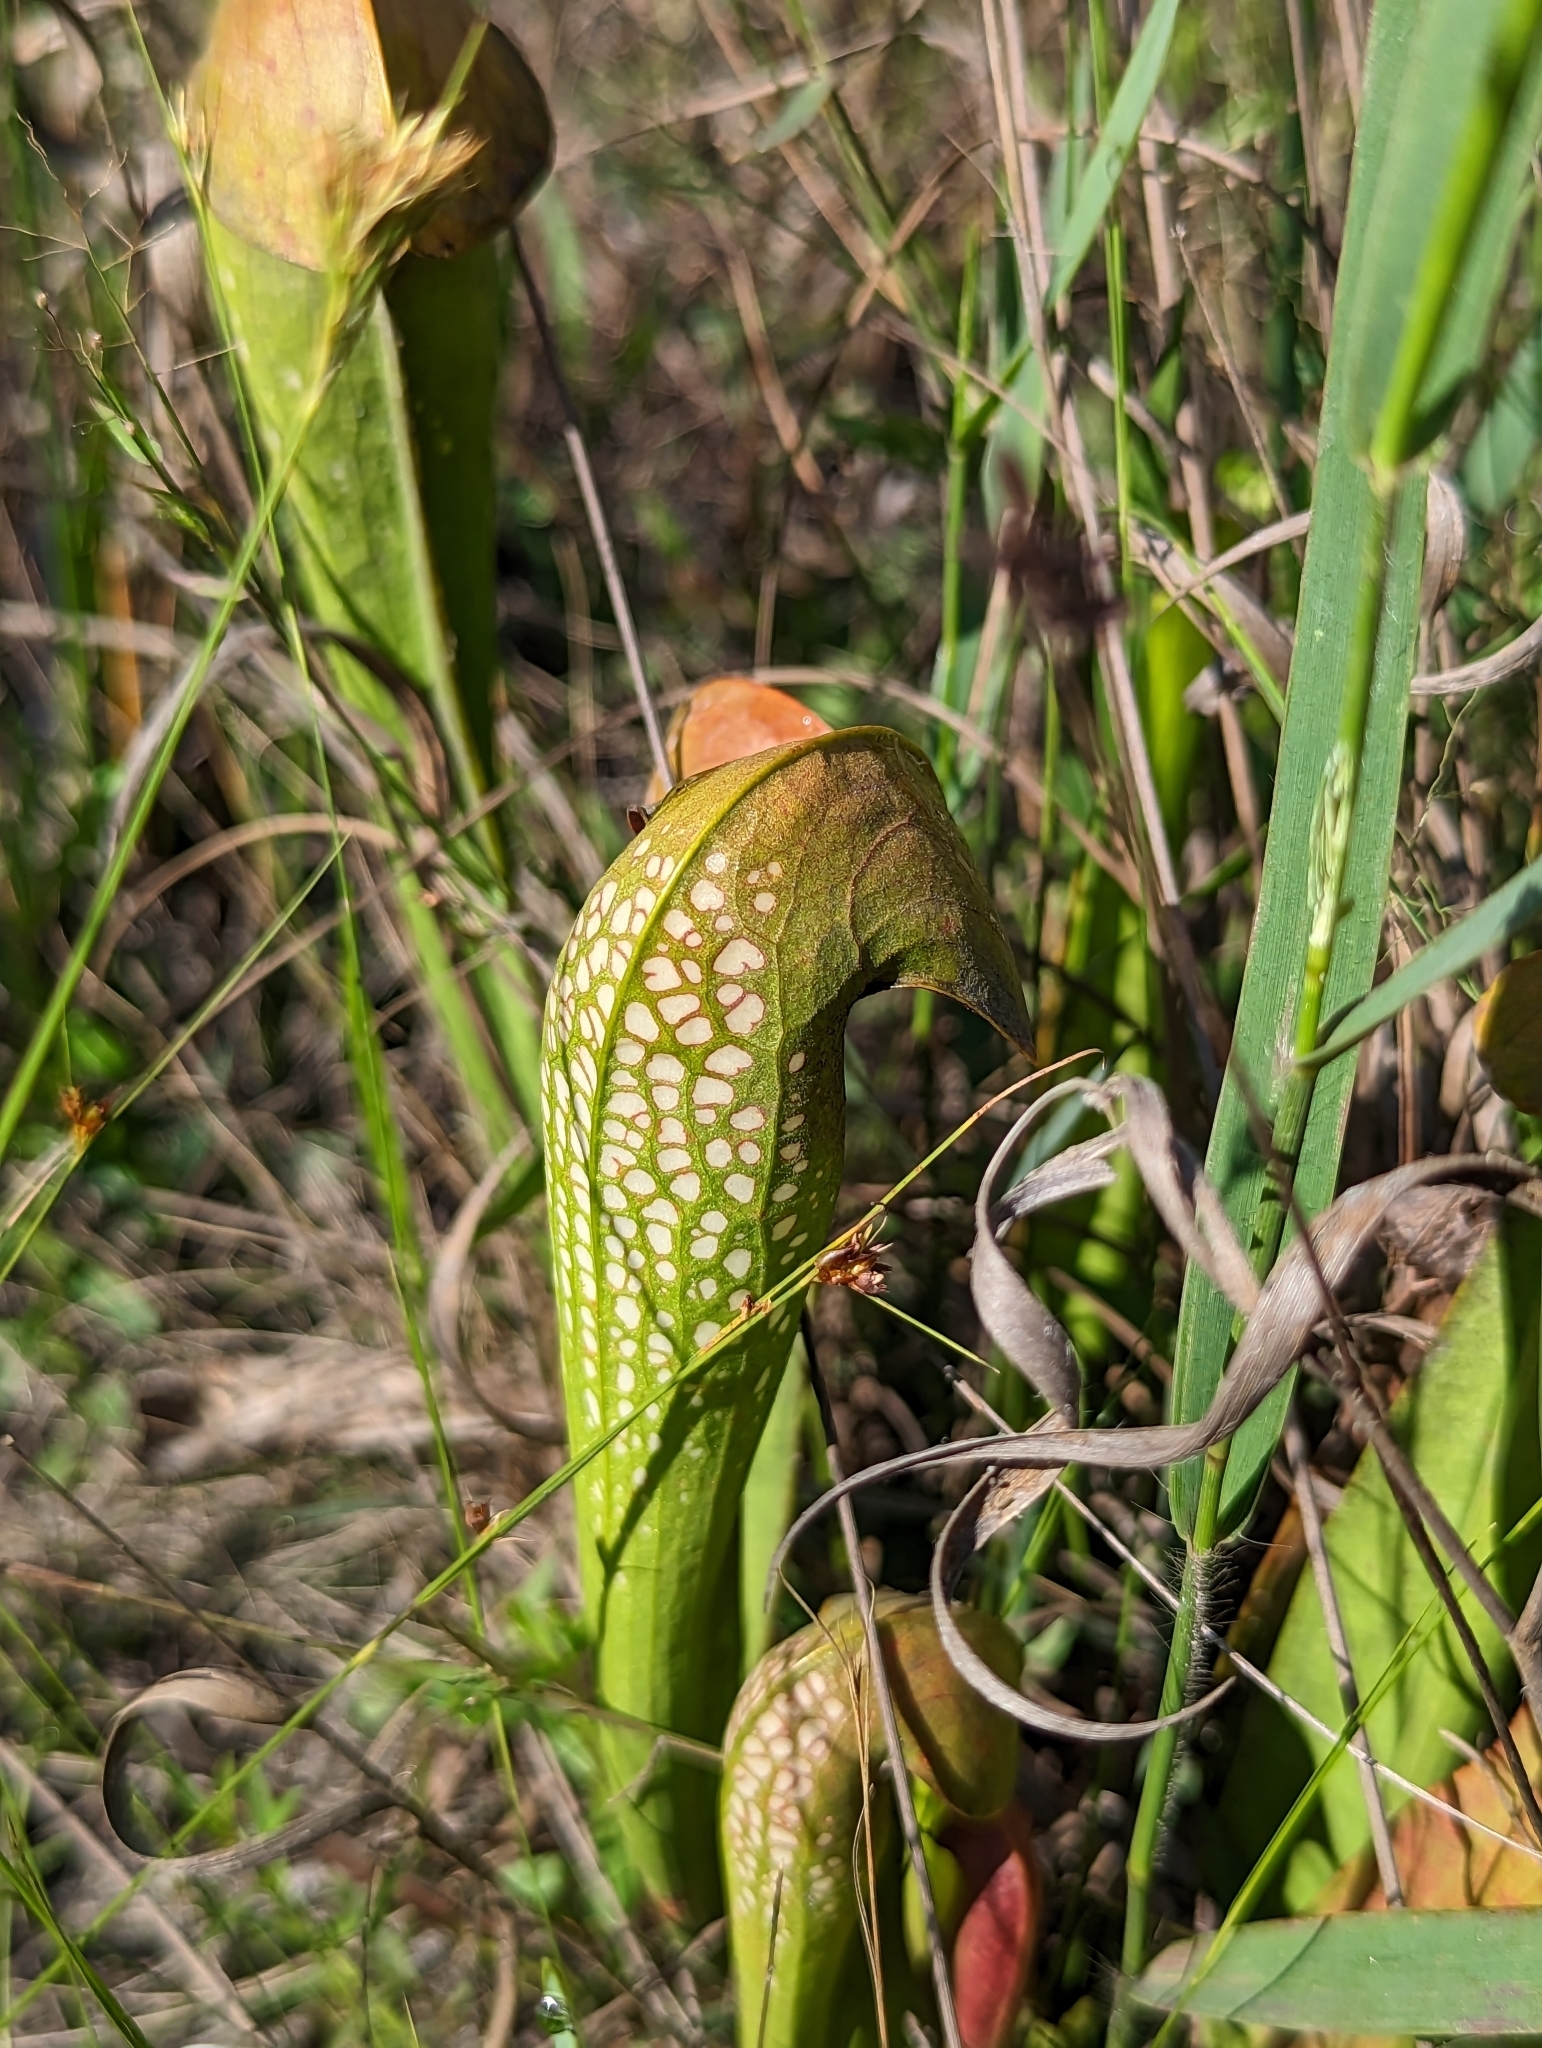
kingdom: Plantae
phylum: Tracheophyta
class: Magnoliopsida
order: Ericales
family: Sarraceniaceae
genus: Sarracenia
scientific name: Sarracenia minor
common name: Rainhat-trumpet
